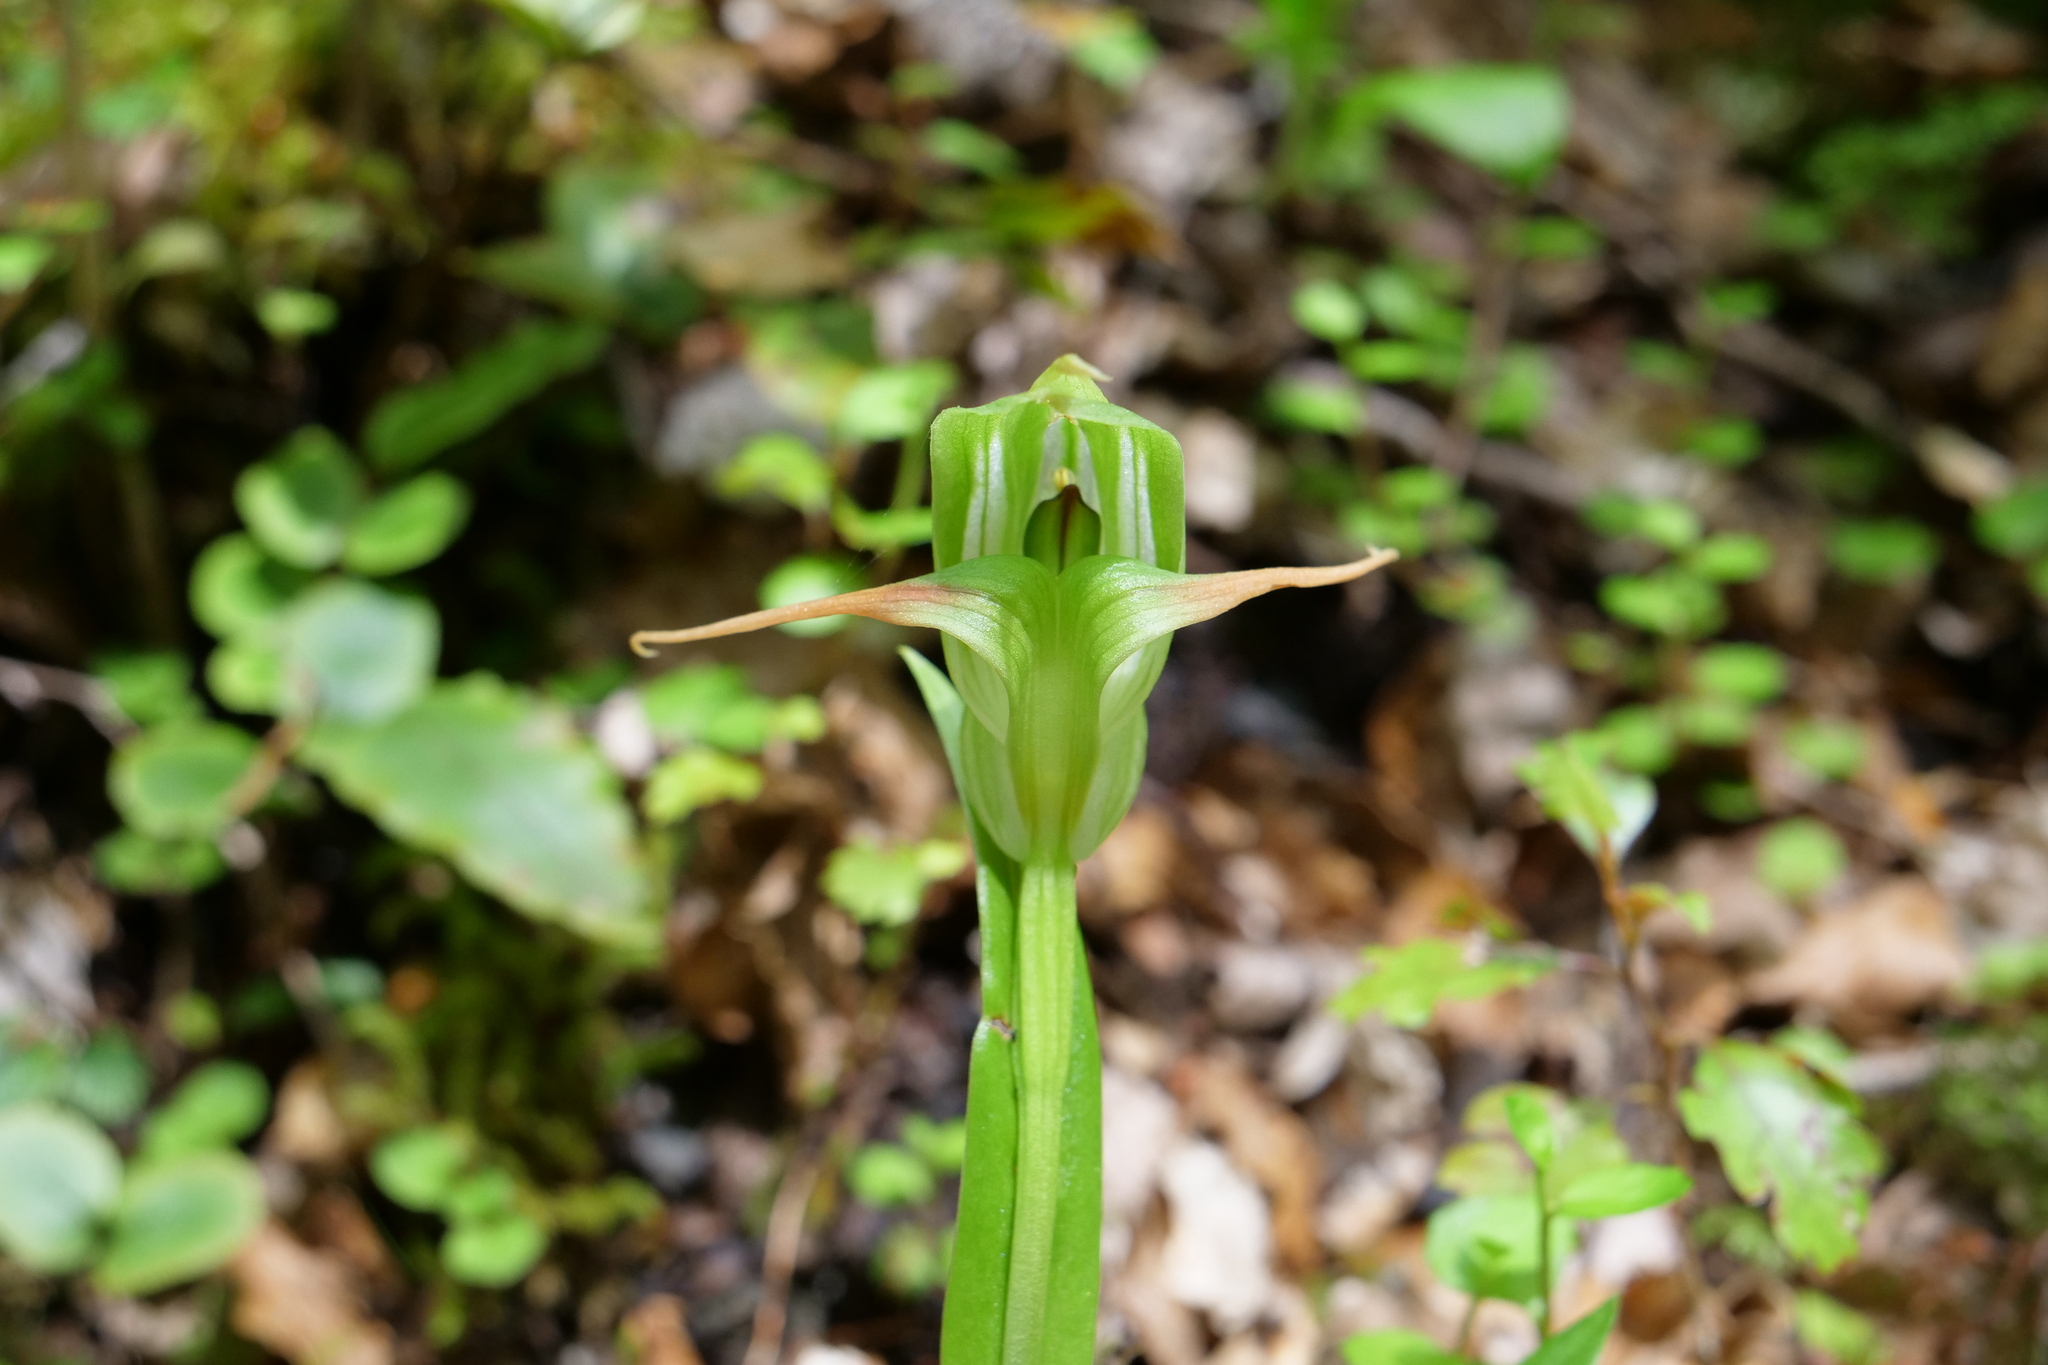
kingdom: Plantae
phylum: Tracheophyta
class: Liliopsida
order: Asparagales
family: Orchidaceae
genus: Pterostylis
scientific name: Pterostylis australis
